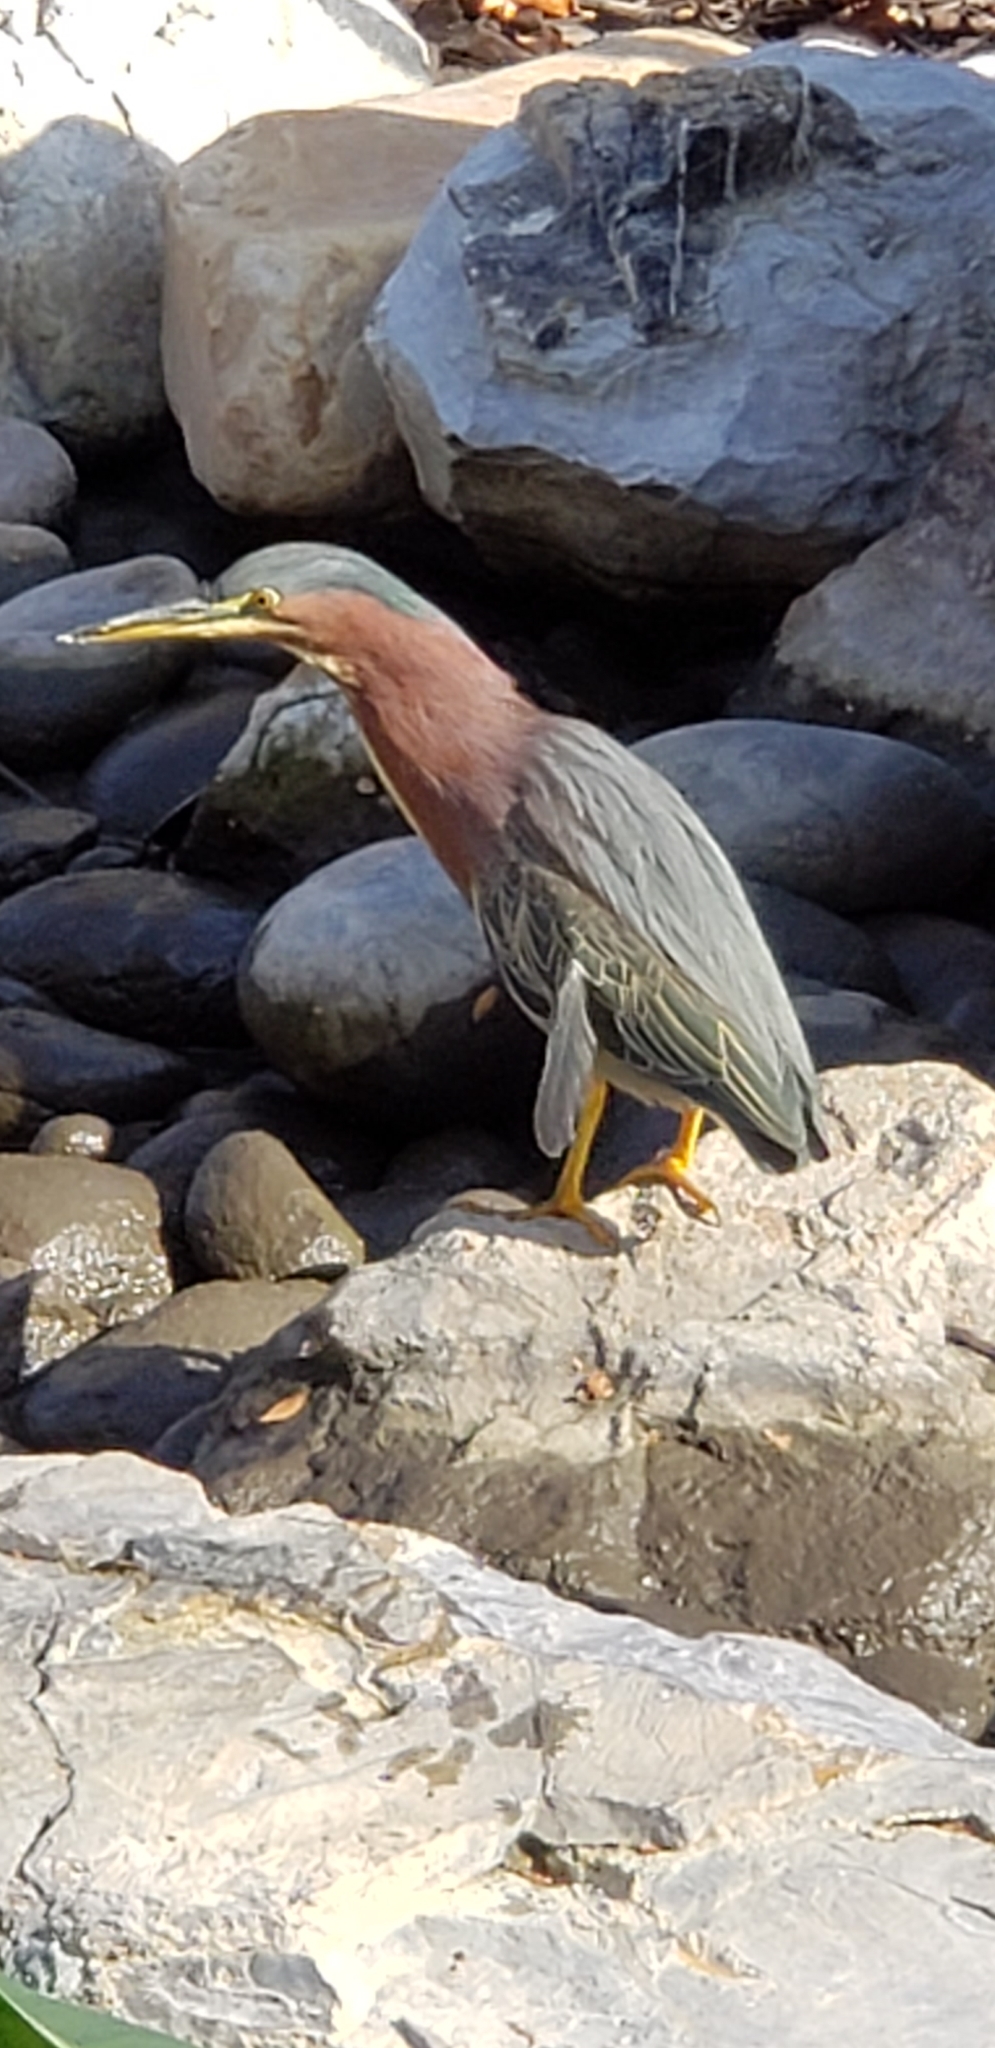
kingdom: Animalia
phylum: Chordata
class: Aves
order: Pelecaniformes
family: Ardeidae
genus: Butorides
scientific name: Butorides virescens
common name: Green heron
